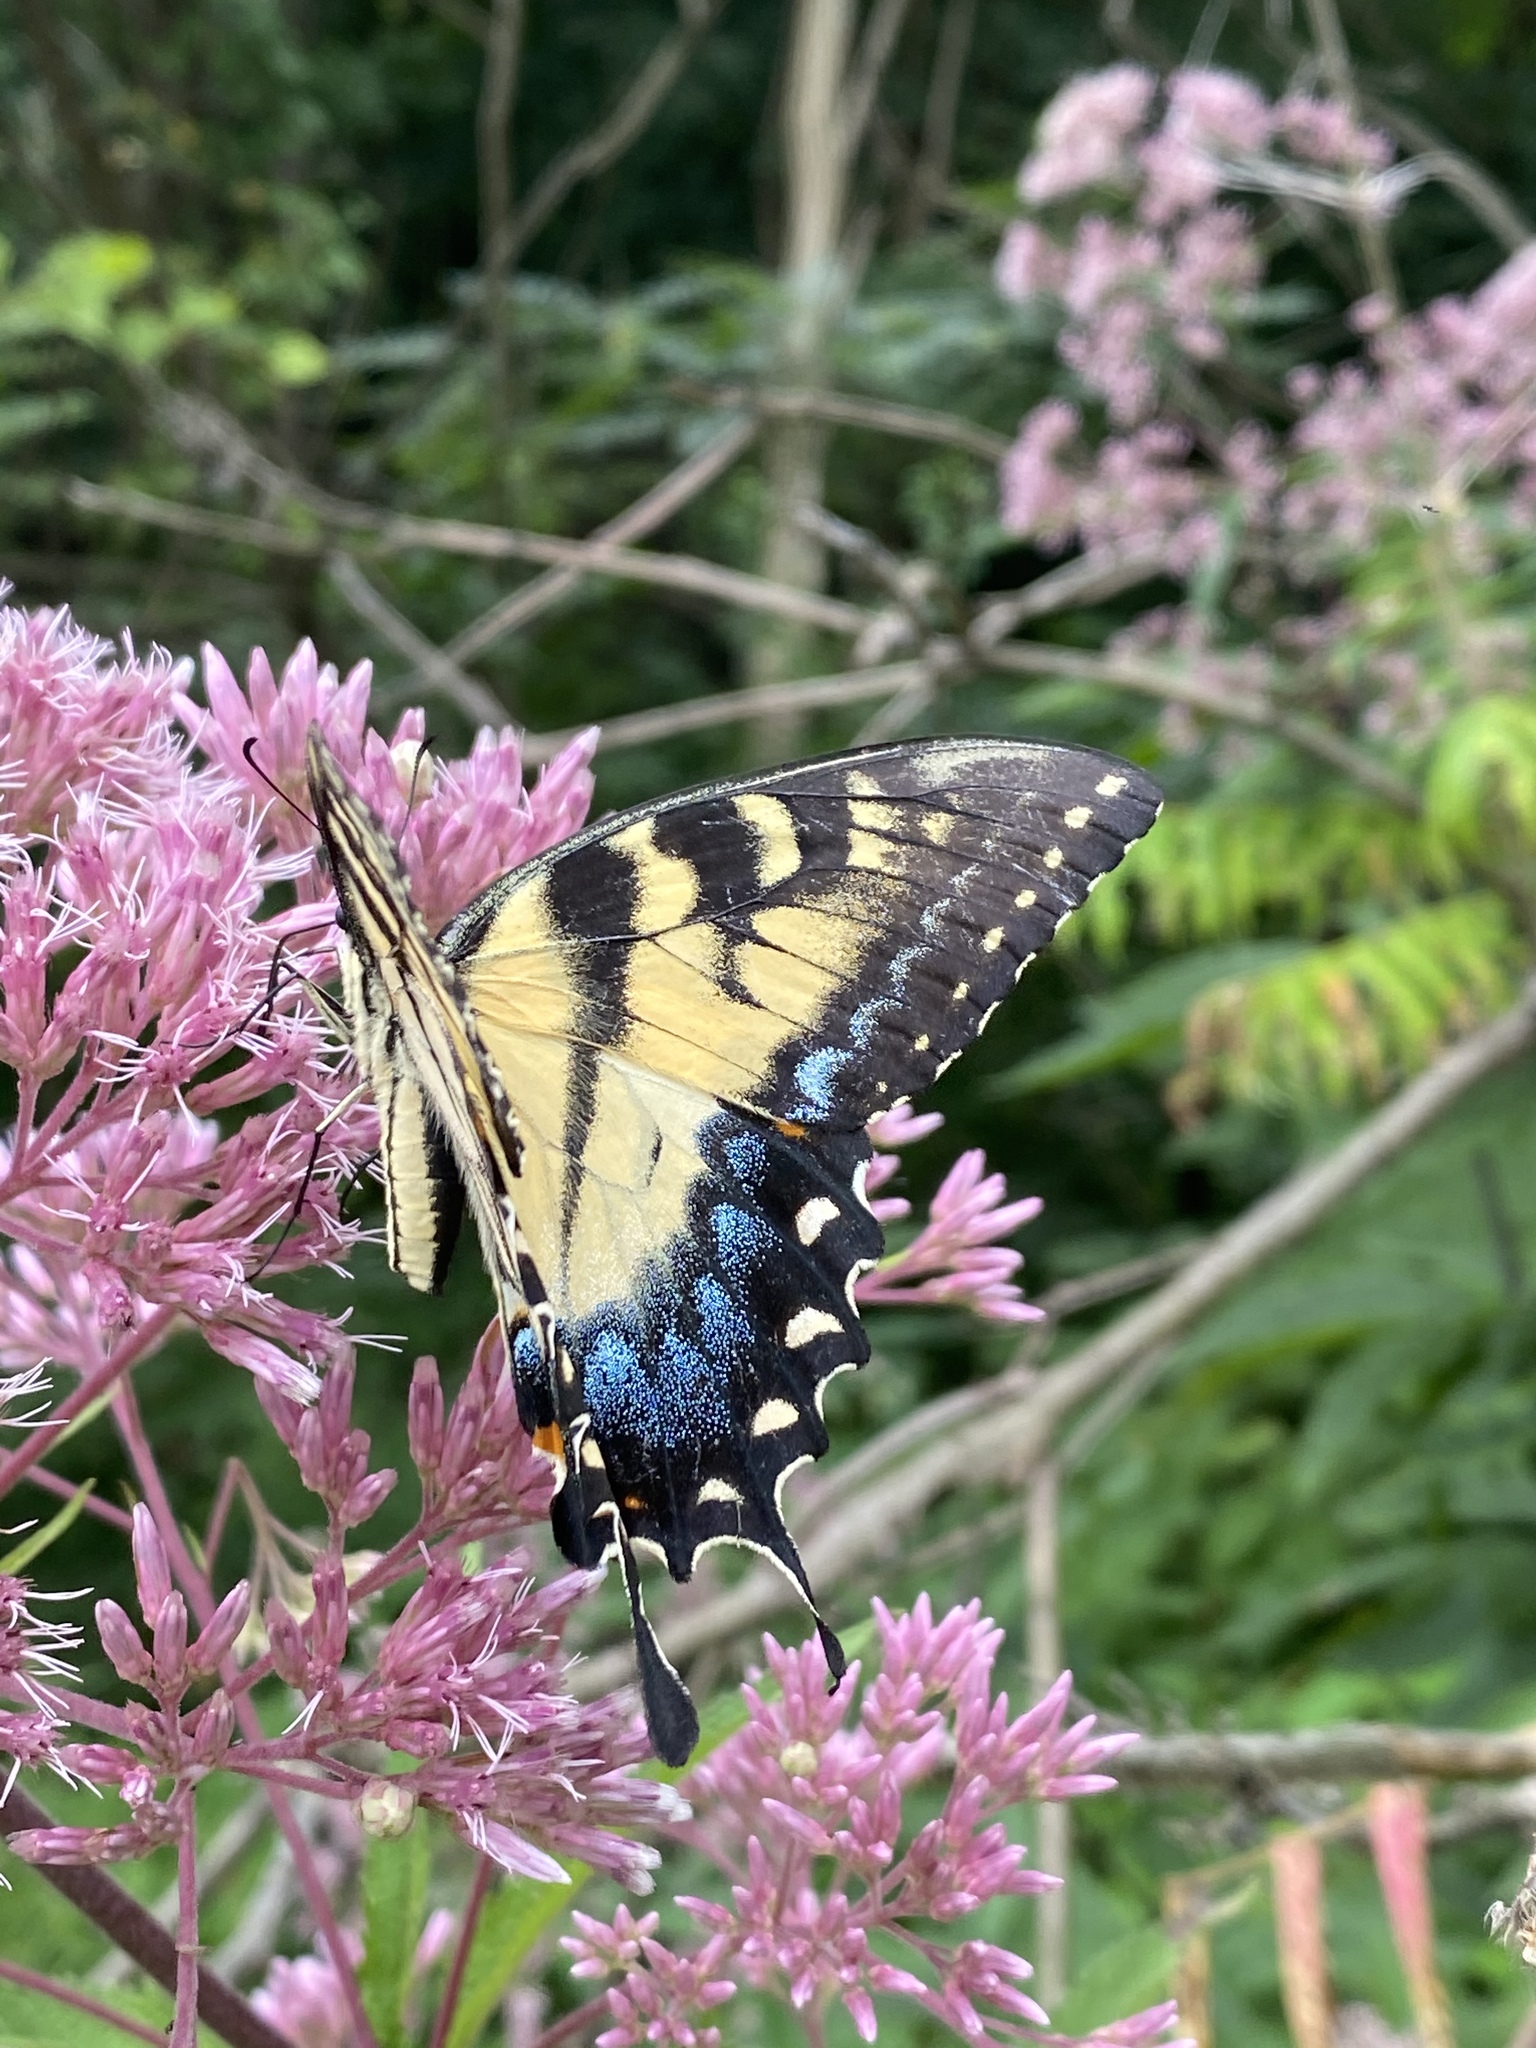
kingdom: Animalia
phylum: Arthropoda
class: Insecta
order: Lepidoptera
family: Papilionidae
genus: Papilio
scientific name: Papilio glaucus
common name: Tiger swallowtail
